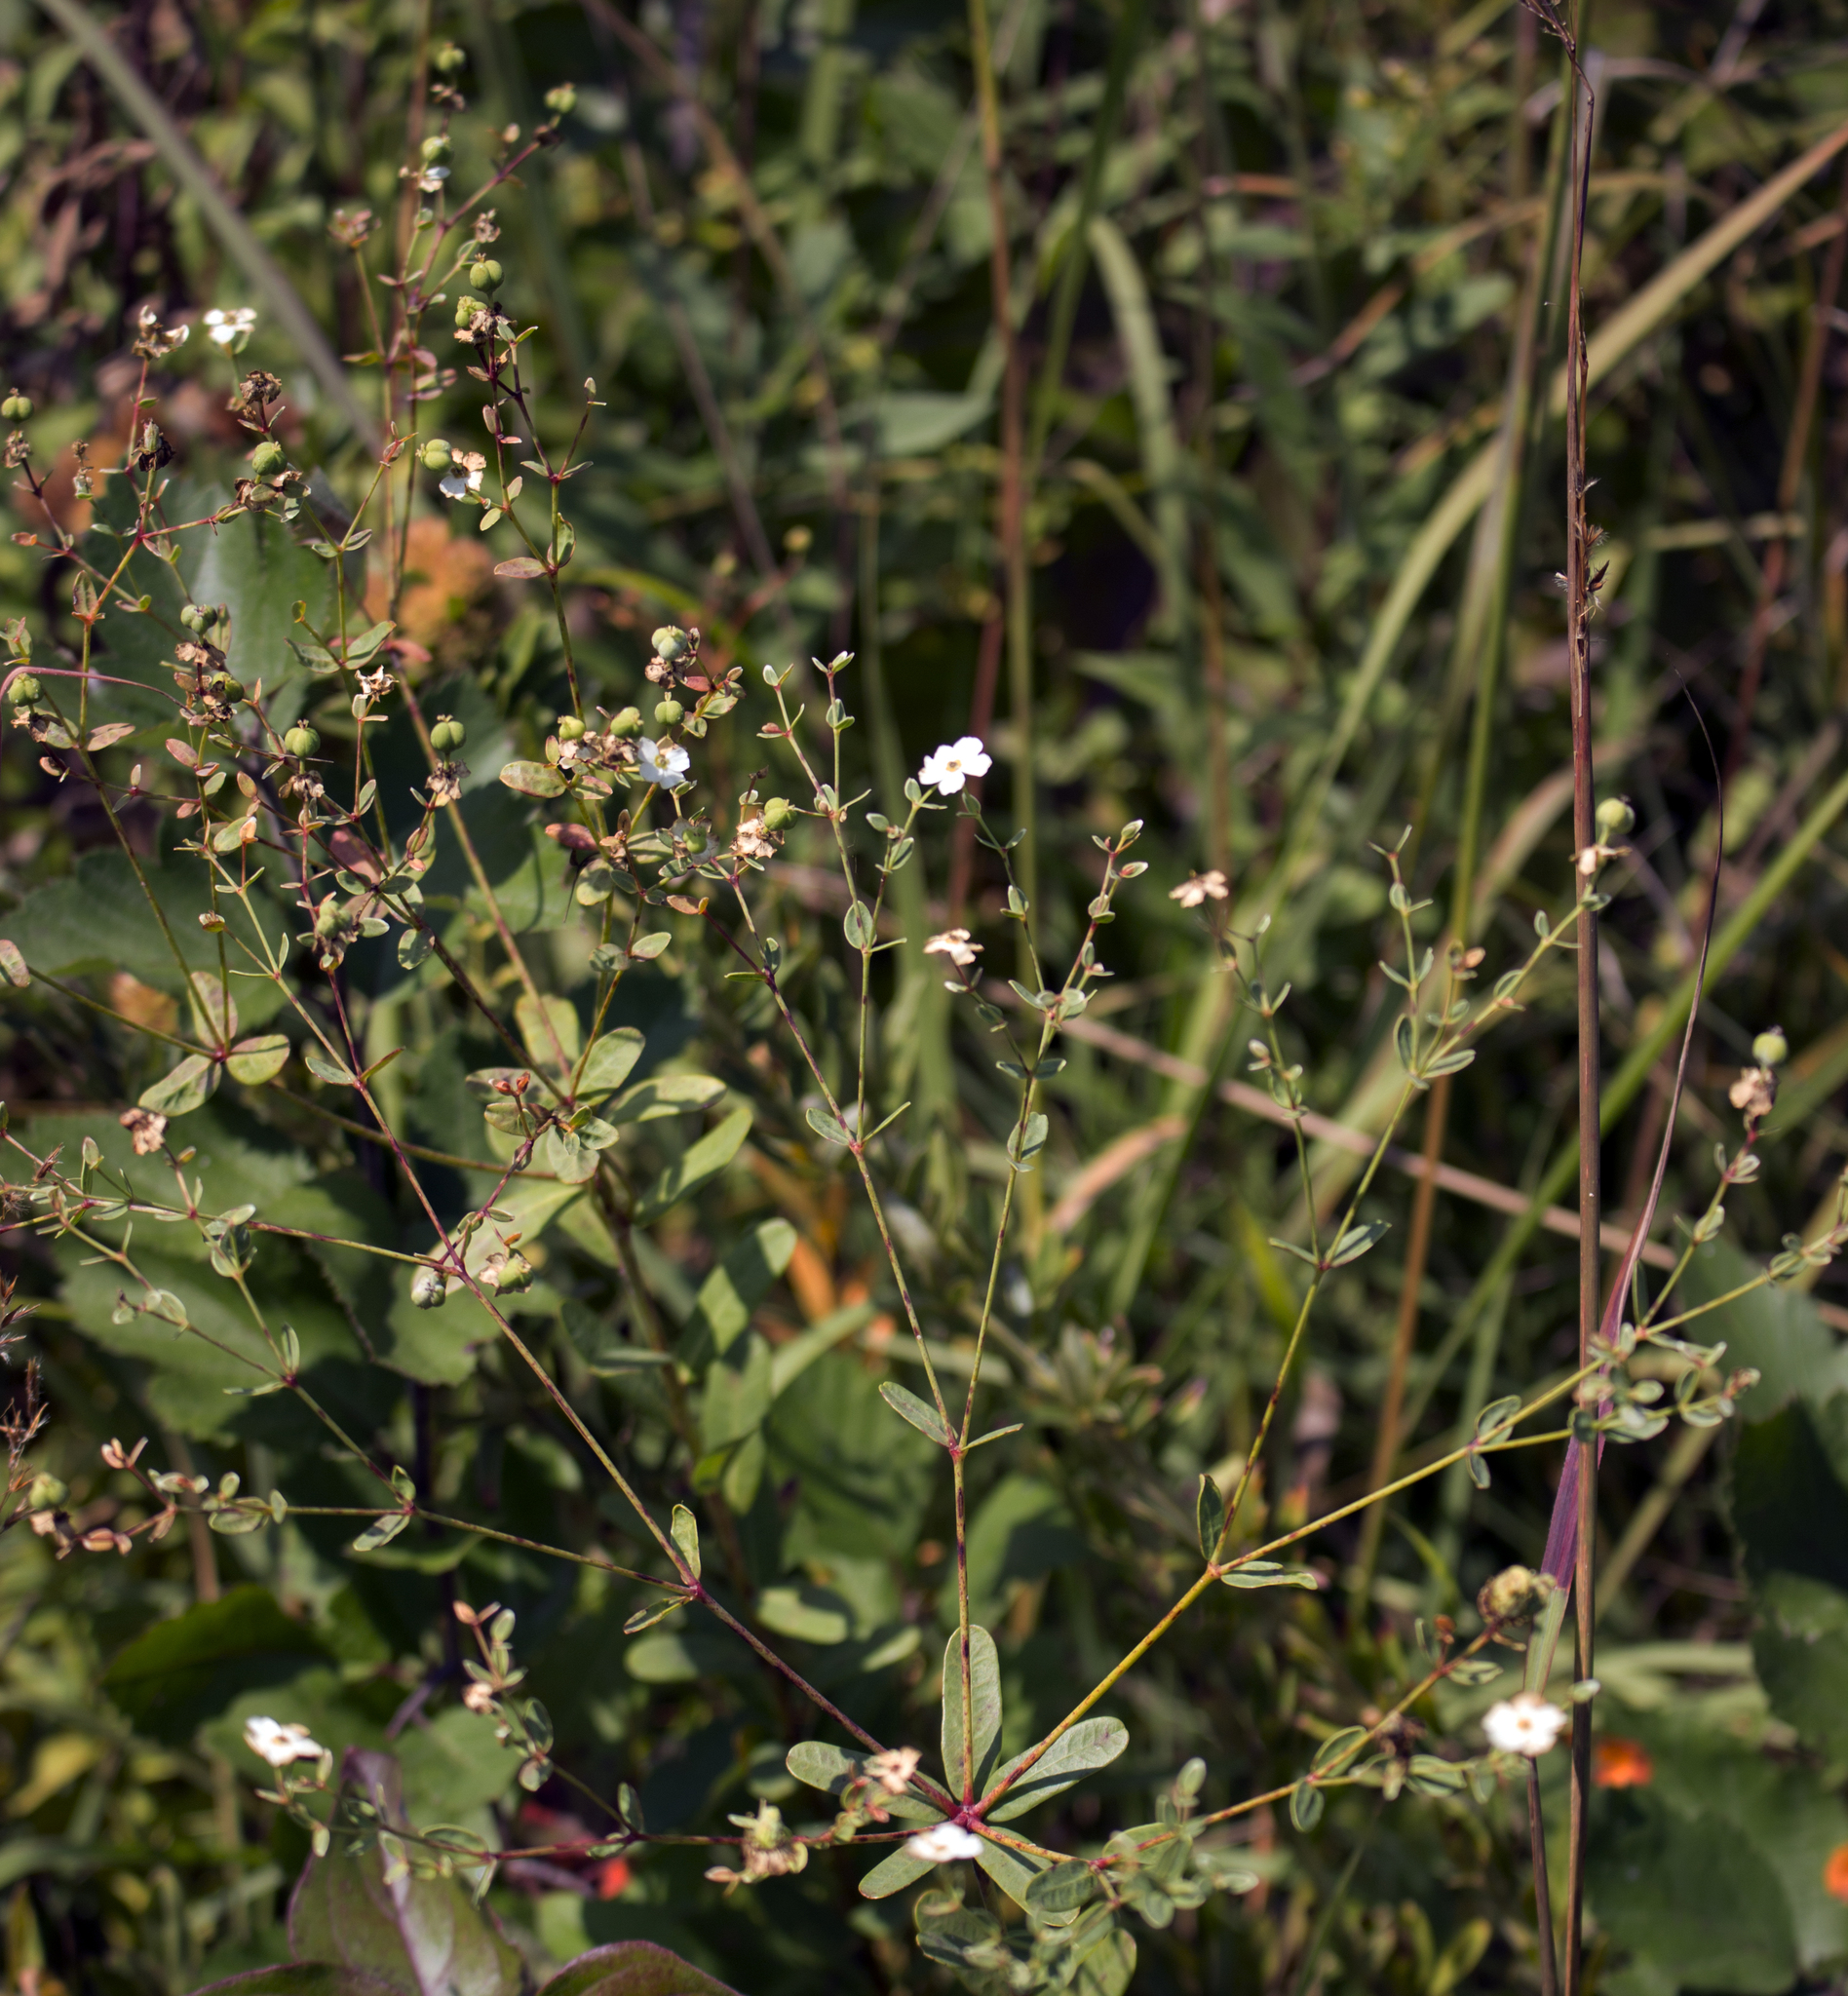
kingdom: Plantae
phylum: Tracheophyta
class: Magnoliopsida
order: Malpighiales
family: Euphorbiaceae
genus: Euphorbia
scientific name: Euphorbia corollata
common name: Flowering spurge
